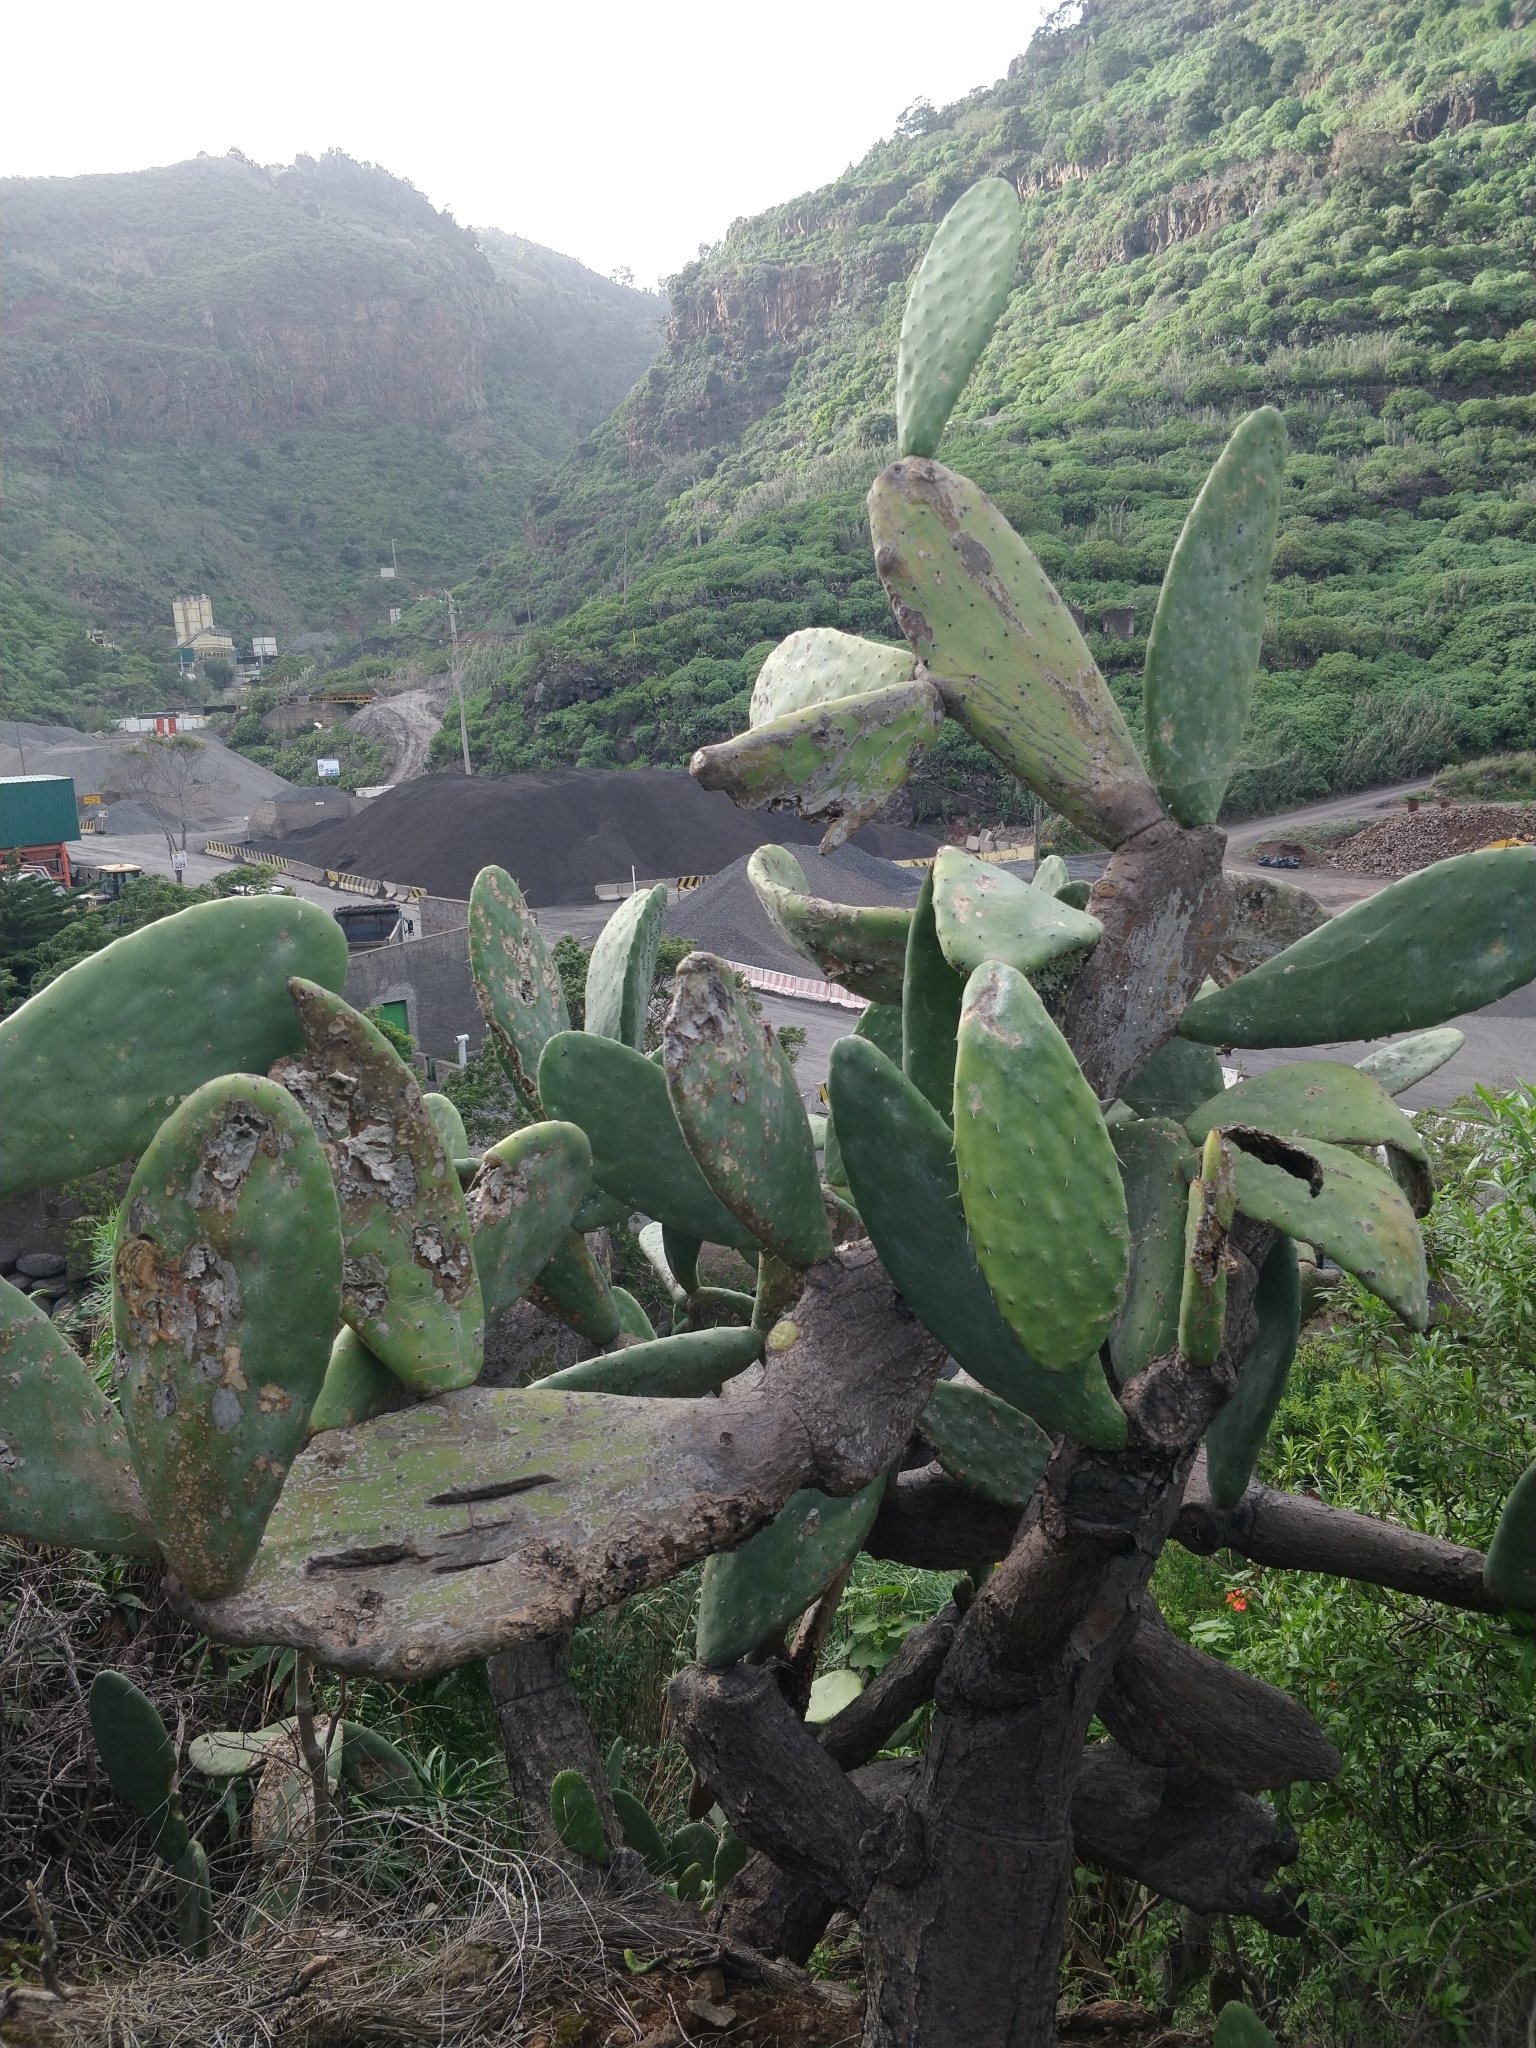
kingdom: Plantae
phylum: Tracheophyta
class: Magnoliopsida
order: Caryophyllales
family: Cactaceae
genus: Opuntia
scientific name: Opuntia ficus-indica
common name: Barbary fig
